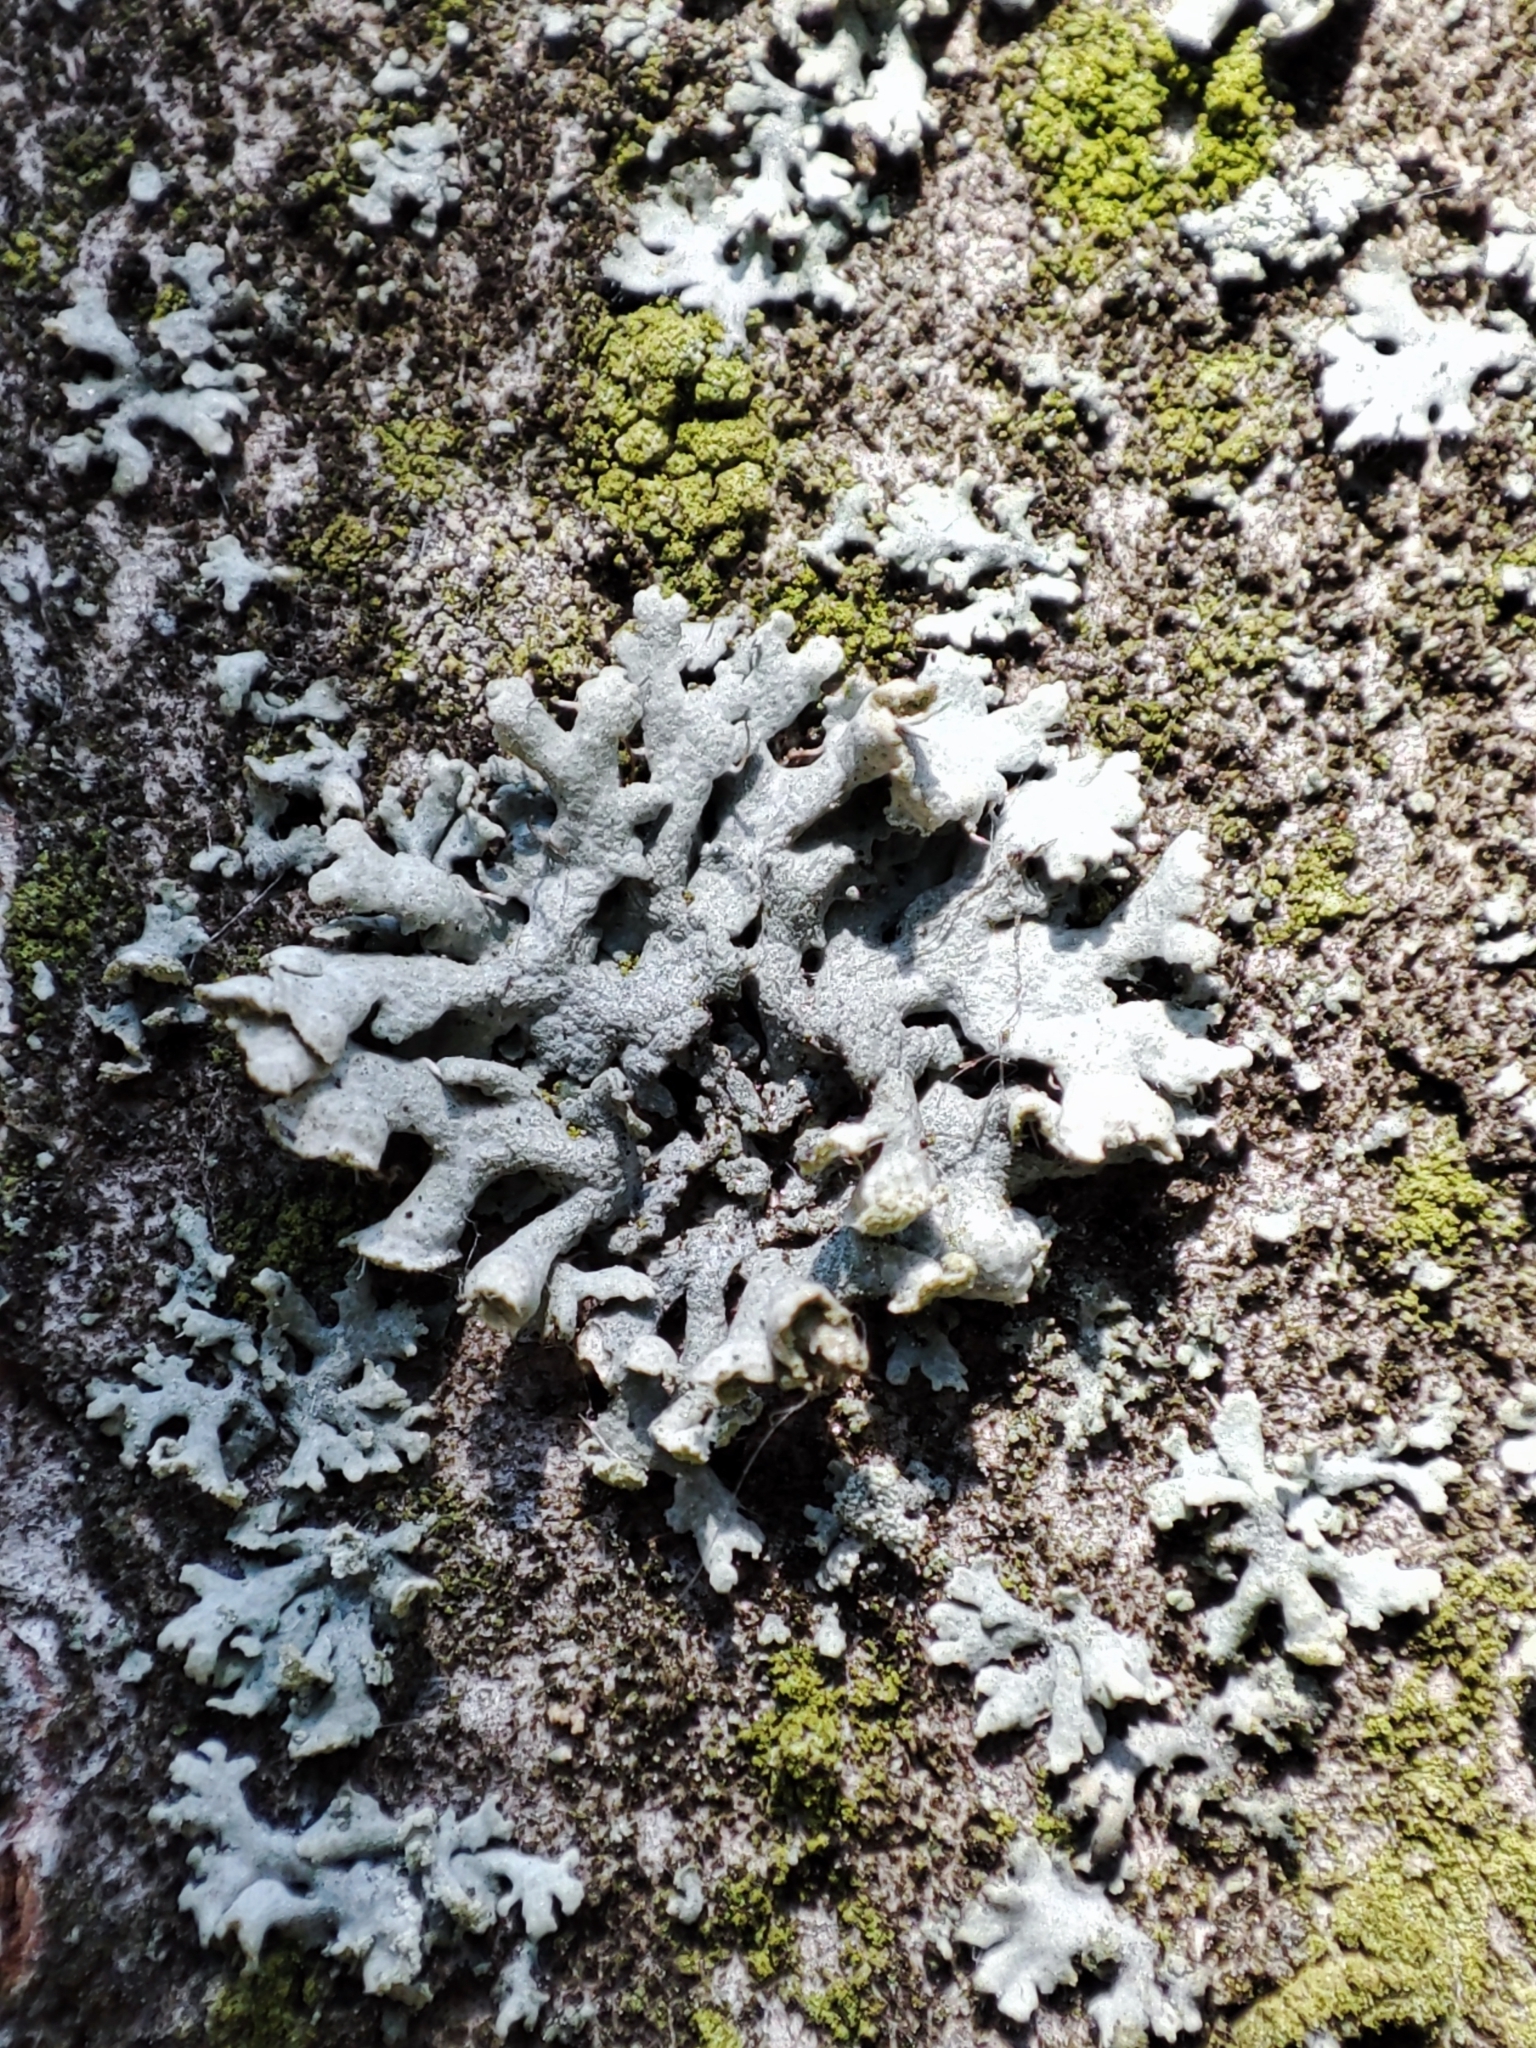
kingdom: Fungi
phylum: Ascomycota
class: Lecanoromycetes
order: Caliciales
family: Physciaceae
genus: Physcia
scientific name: Physcia adscendens
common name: Hooded rosette lichen
